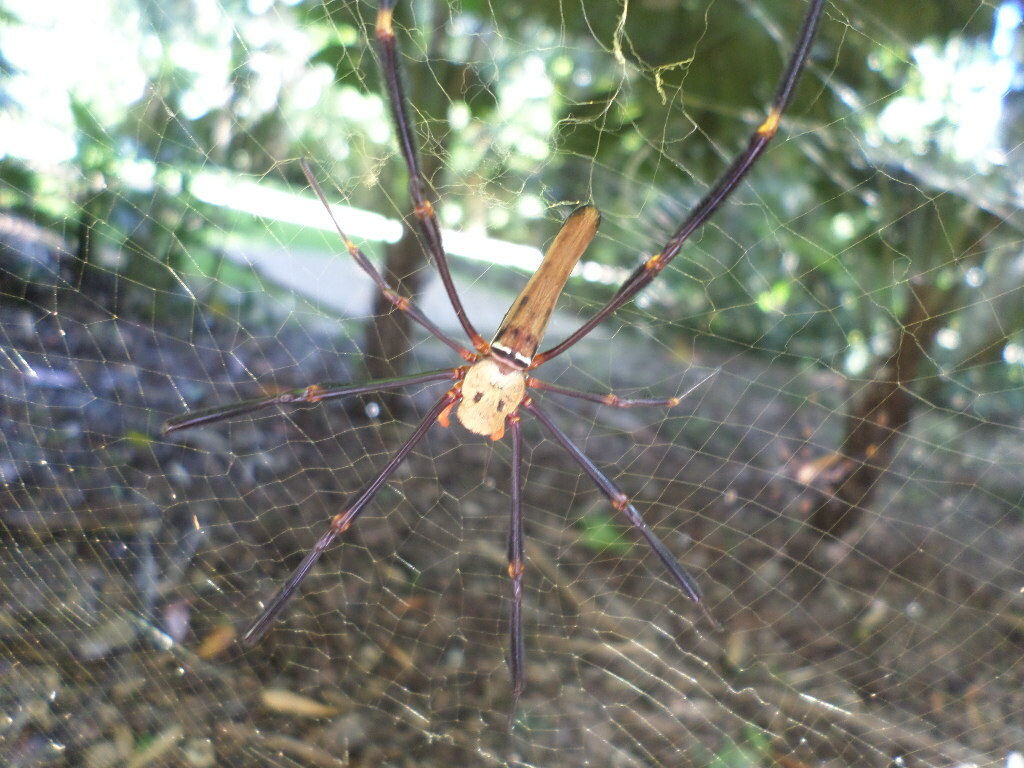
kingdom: Animalia
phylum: Arthropoda
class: Arachnida
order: Araneae
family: Araneidae
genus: Nephila
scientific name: Nephila pilipes
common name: Giant golden orb weaver
